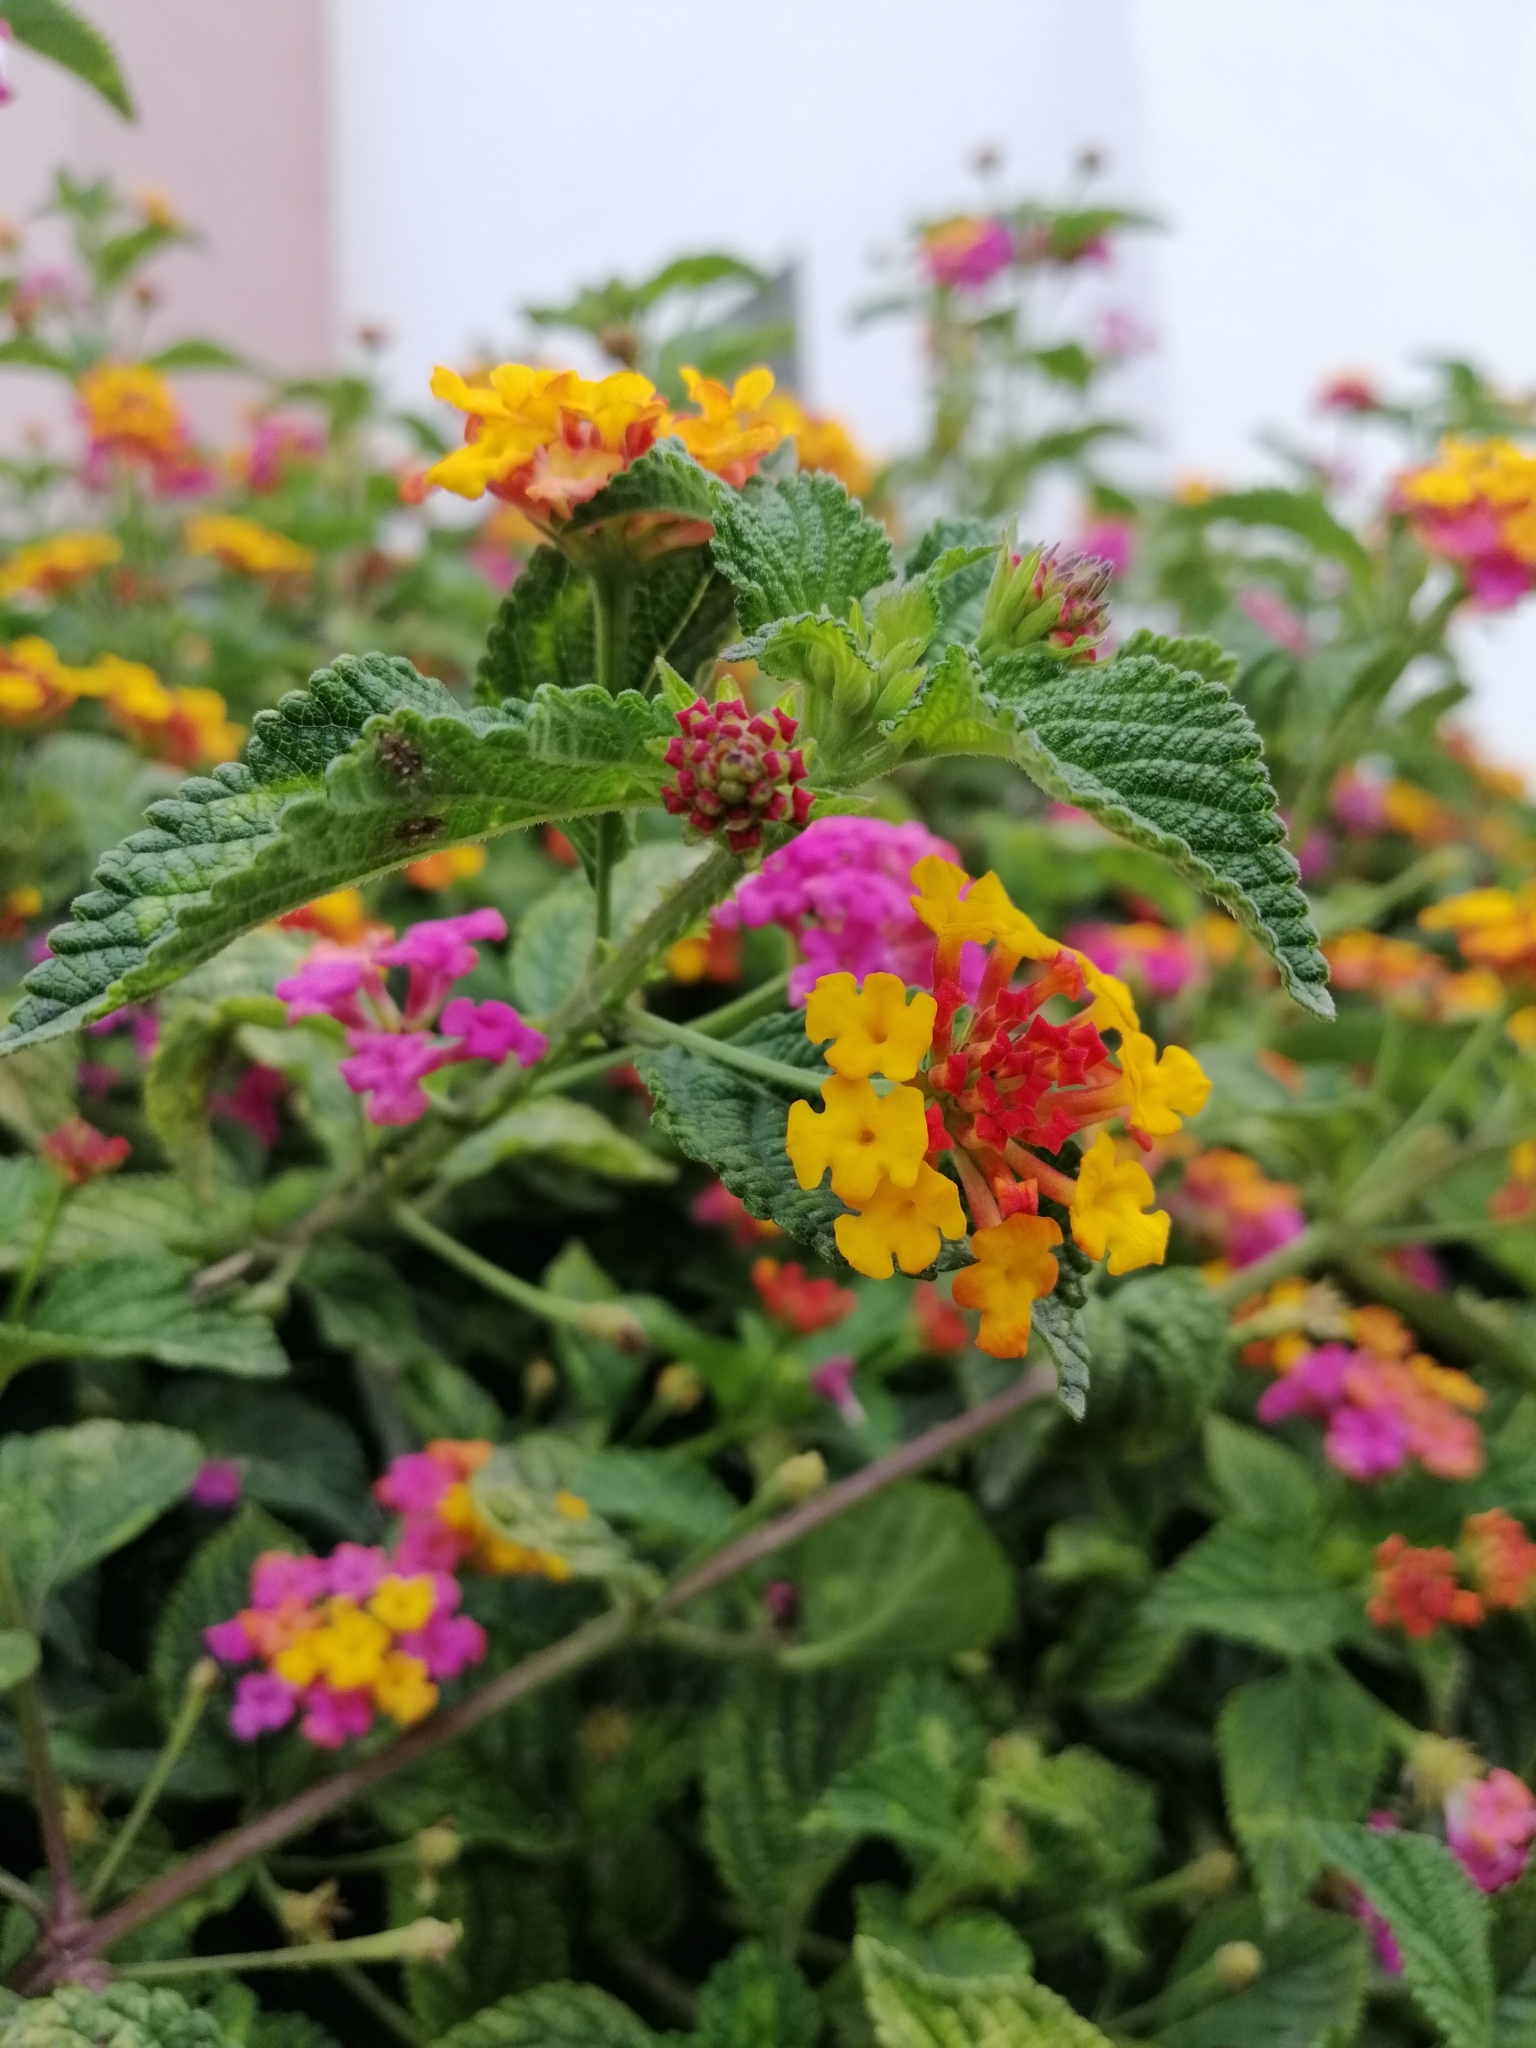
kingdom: Plantae
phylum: Tracheophyta
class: Magnoliopsida
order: Lamiales
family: Verbenaceae
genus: Lantana
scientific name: Lantana camara
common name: Lantana
